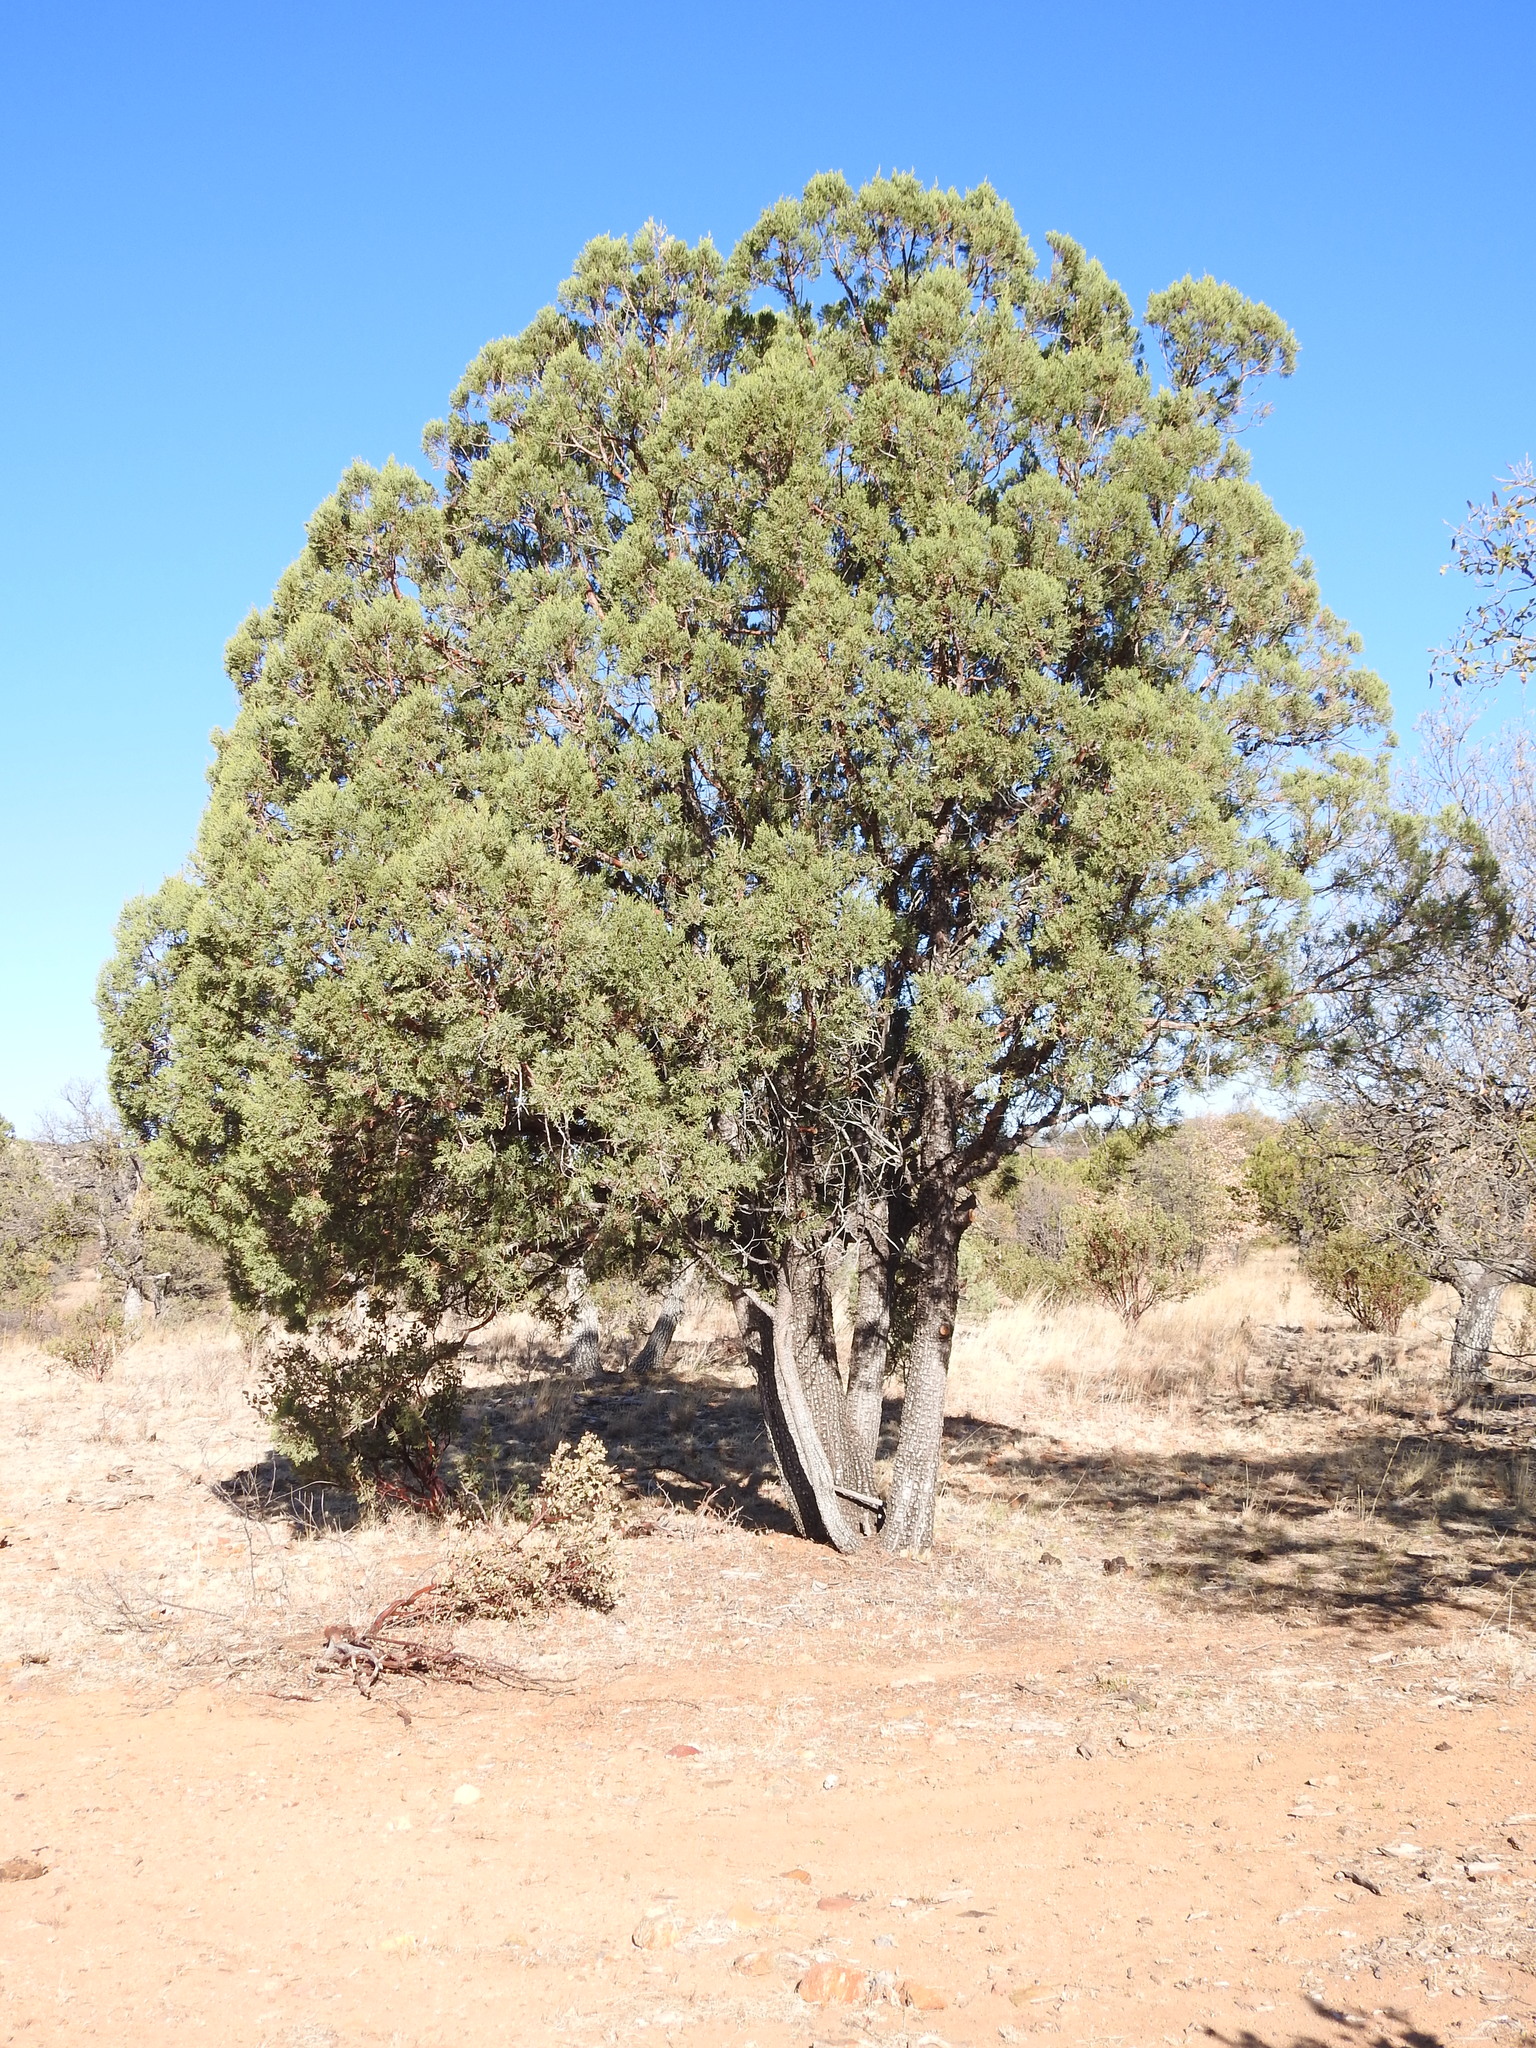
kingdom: Plantae
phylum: Tracheophyta
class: Pinopsida
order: Pinales
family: Cupressaceae
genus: Juniperus
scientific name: Juniperus deppeana
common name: Alligator juniper
